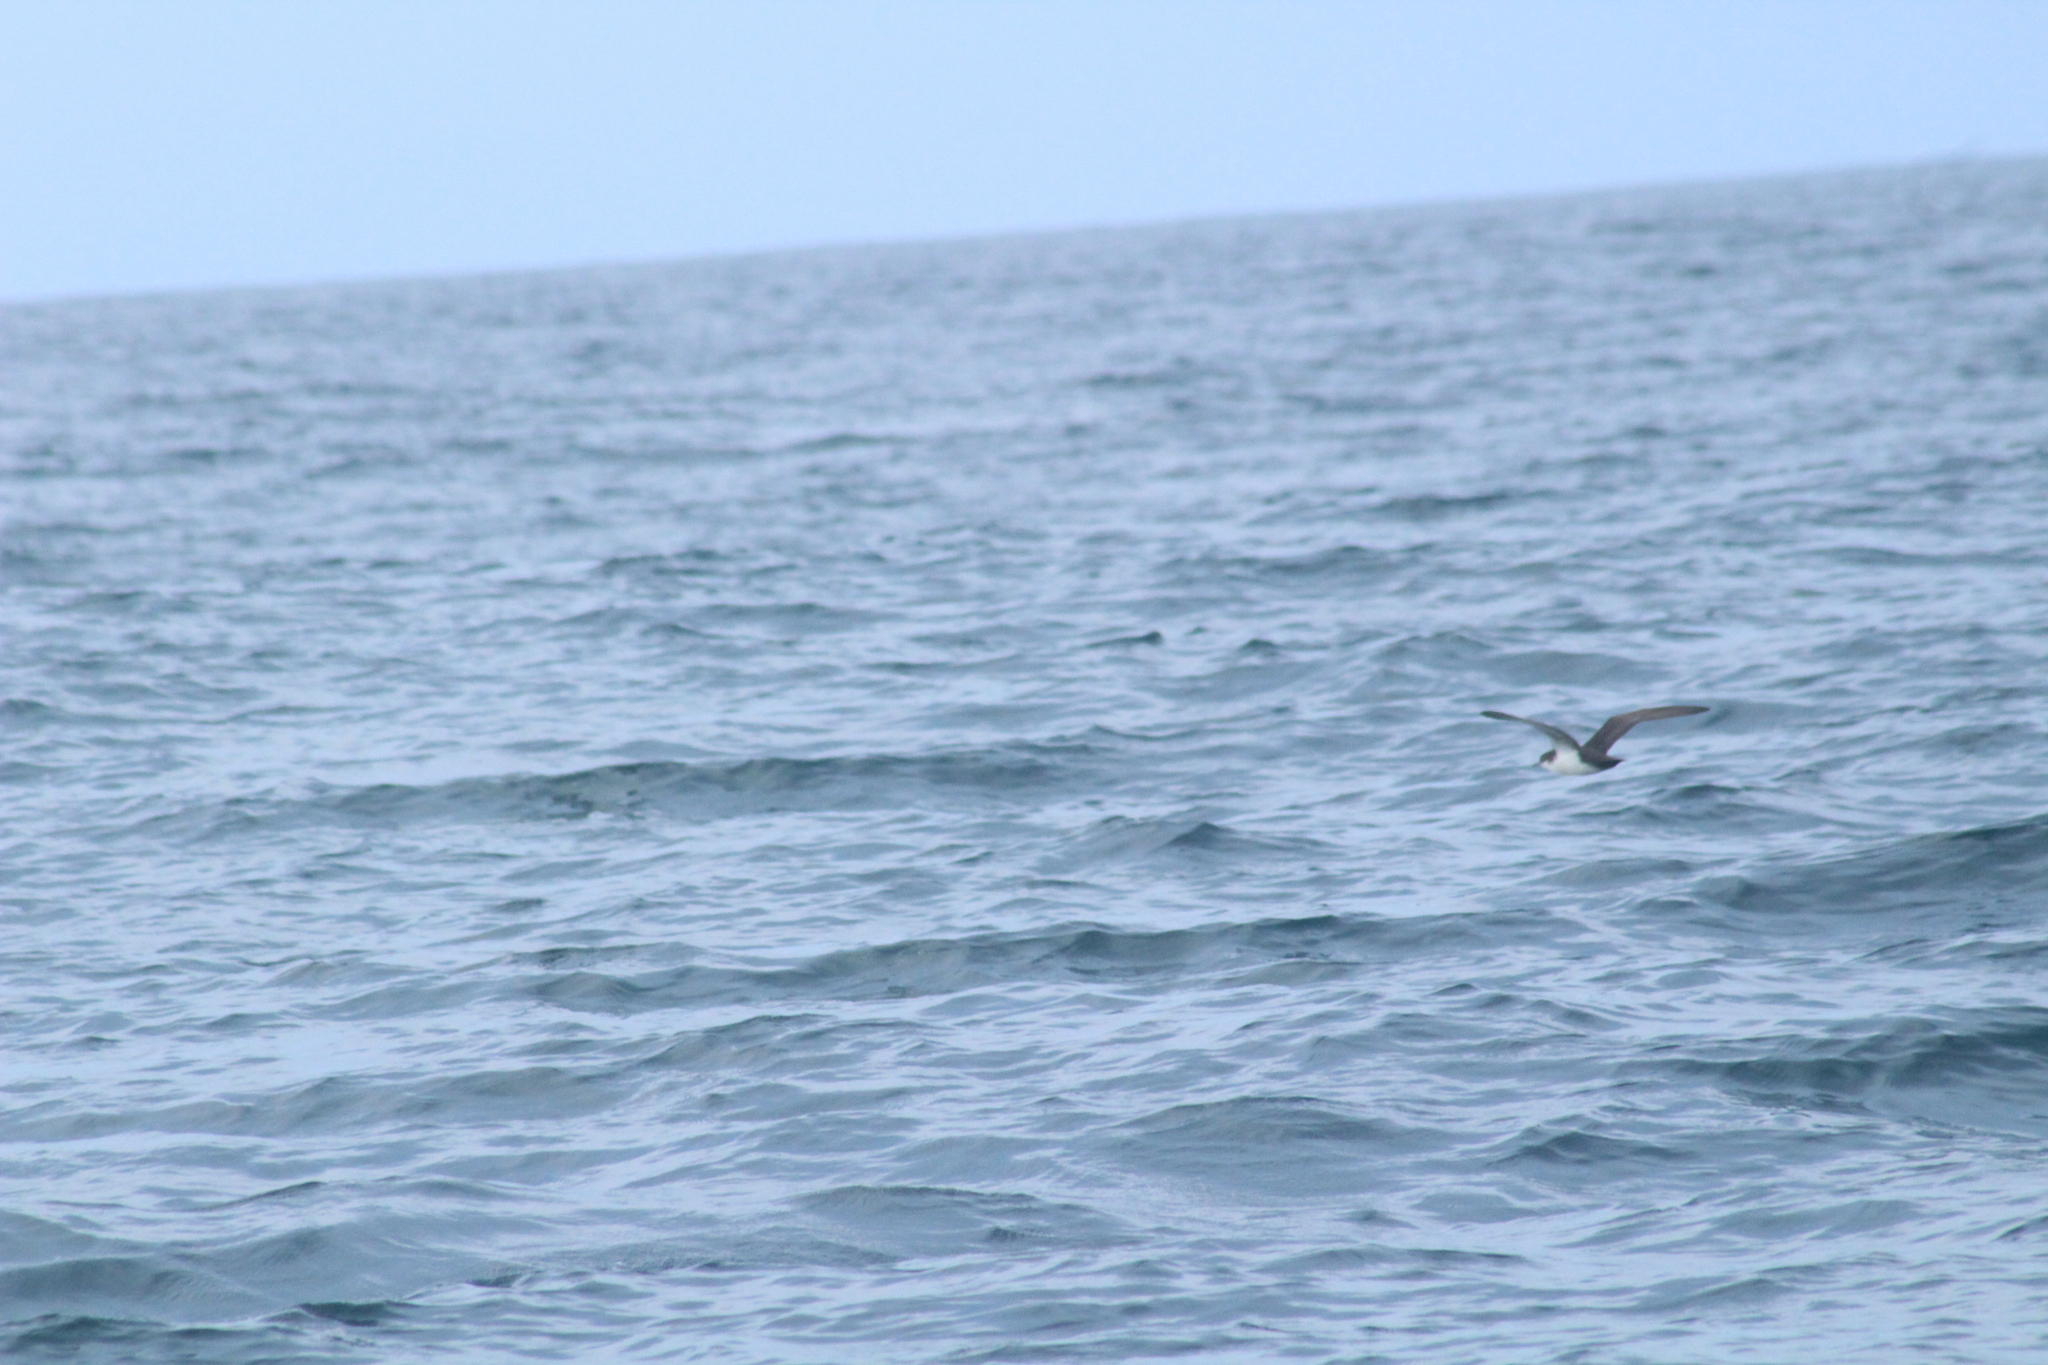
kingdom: Animalia
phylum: Chordata
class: Aves
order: Procellariiformes
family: Procellariidae
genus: Puffinus
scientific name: Puffinus subalaris
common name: Galapagos shearwater
